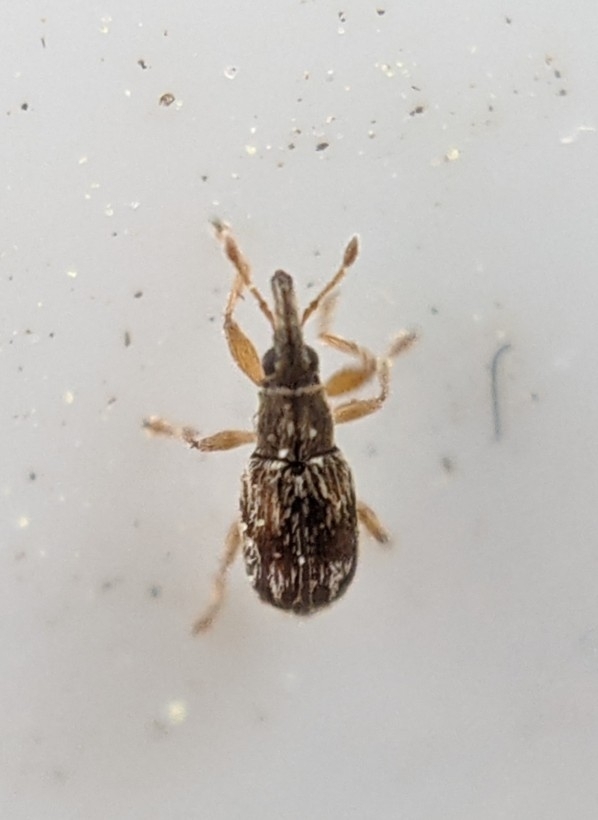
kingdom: Animalia
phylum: Arthropoda
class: Insecta
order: Coleoptera
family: Apionidae
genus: Taeniapion
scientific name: Taeniapion urticarium
